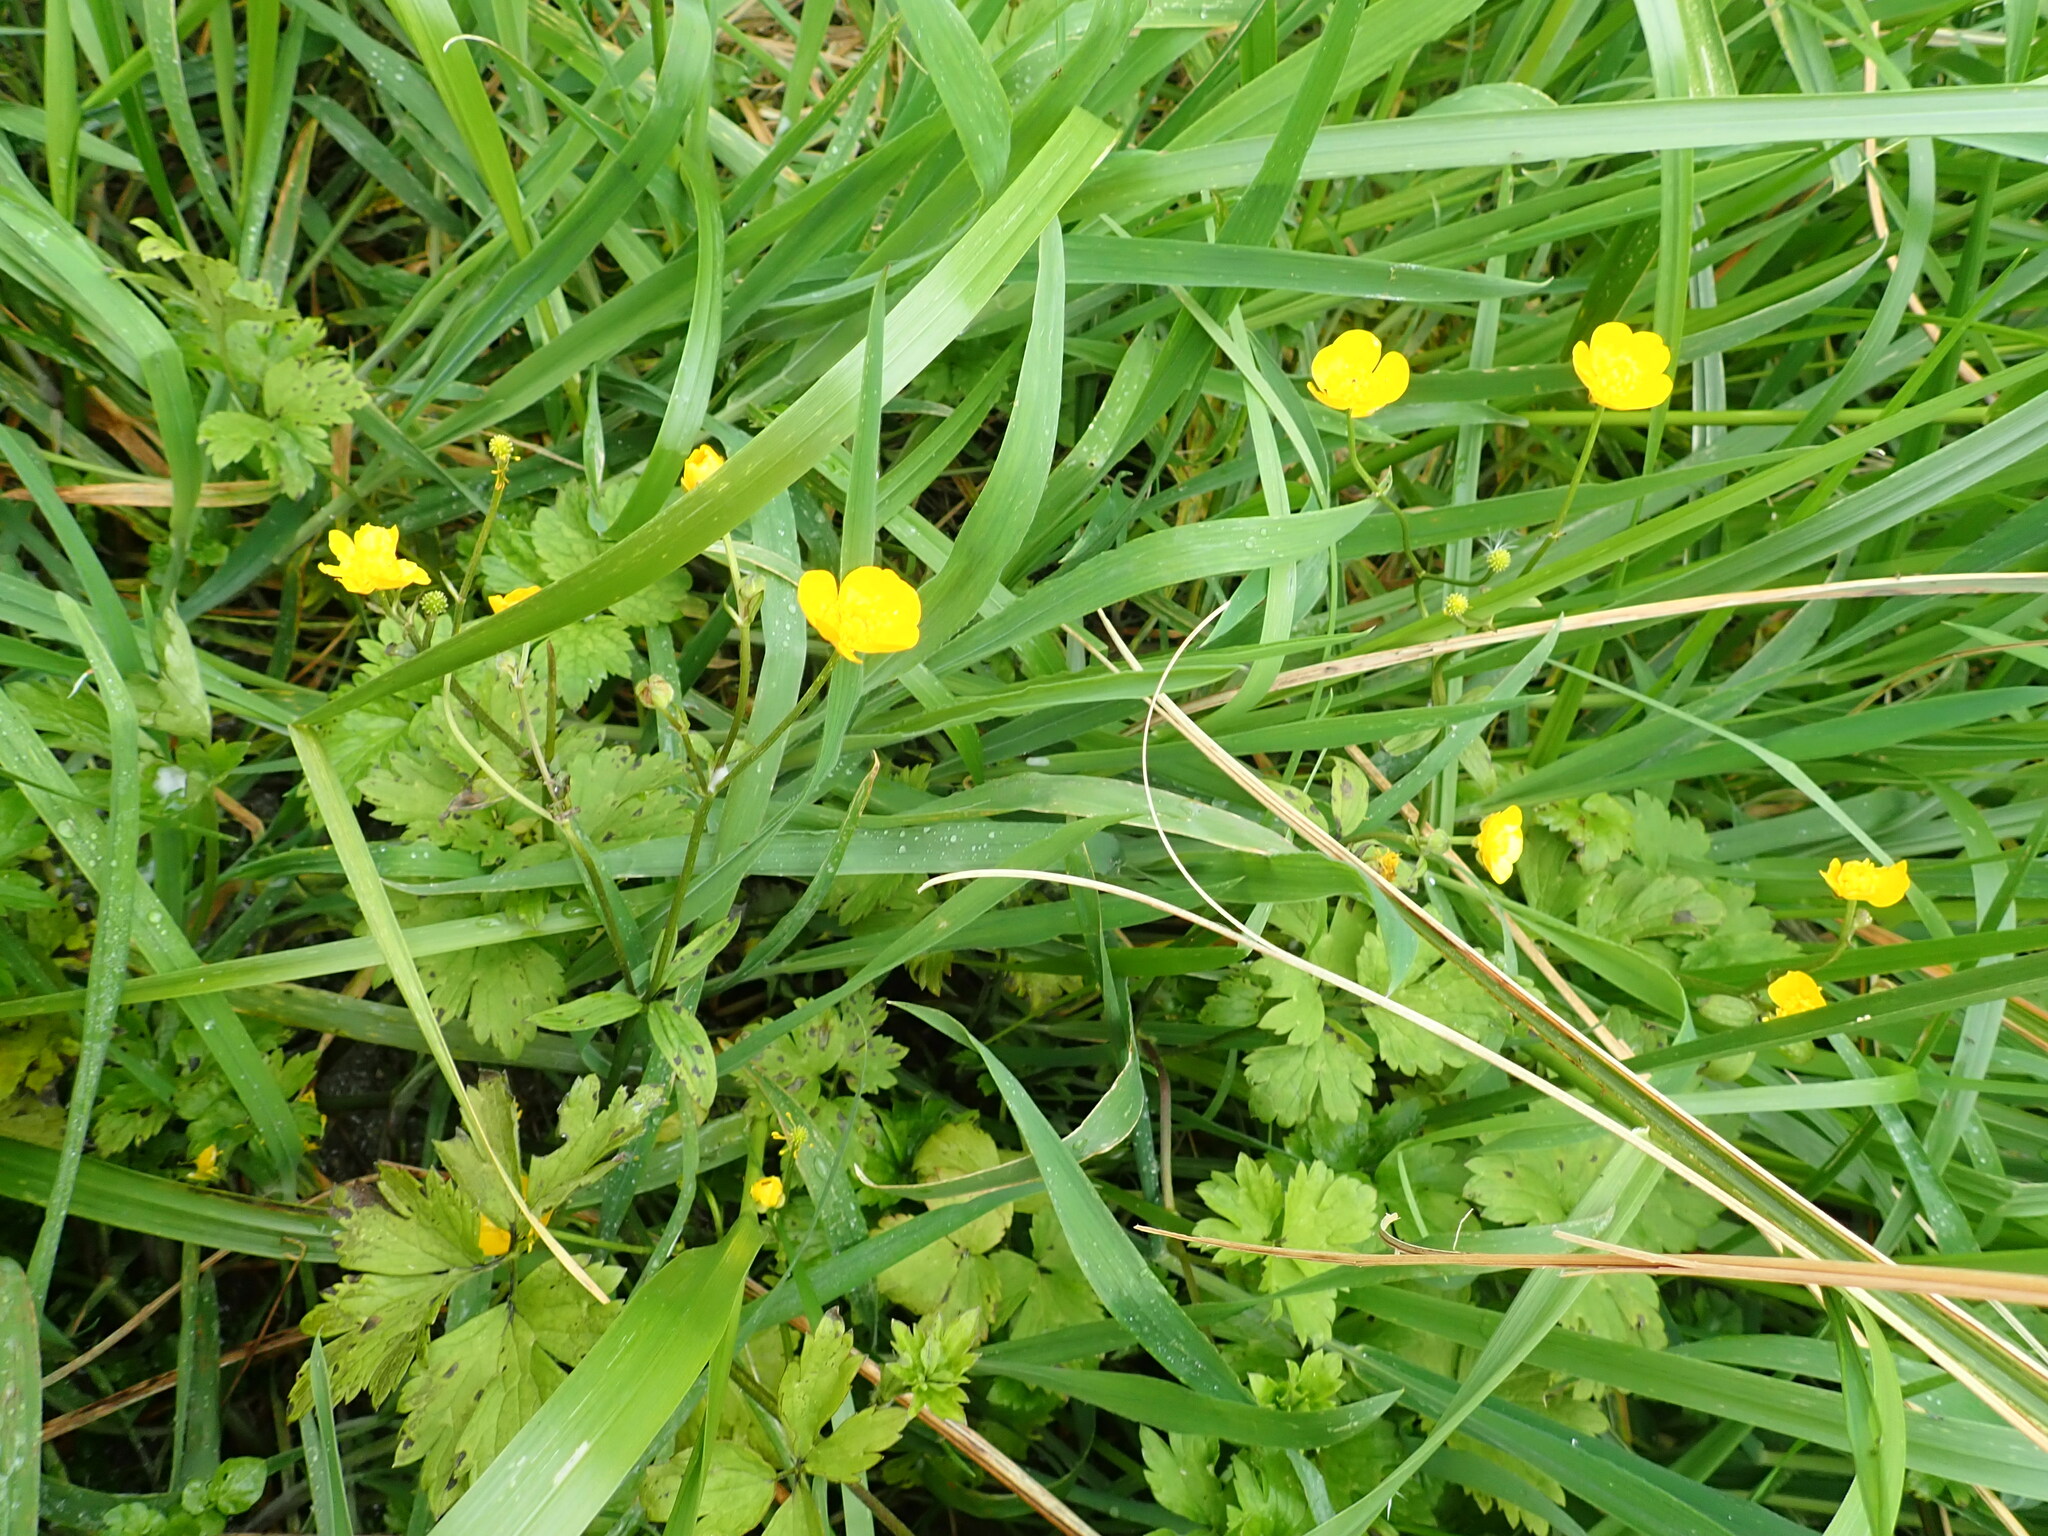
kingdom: Plantae
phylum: Tracheophyta
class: Magnoliopsida
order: Ranunculales
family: Ranunculaceae
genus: Ranunculus
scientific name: Ranunculus repens
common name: Creeping buttercup
